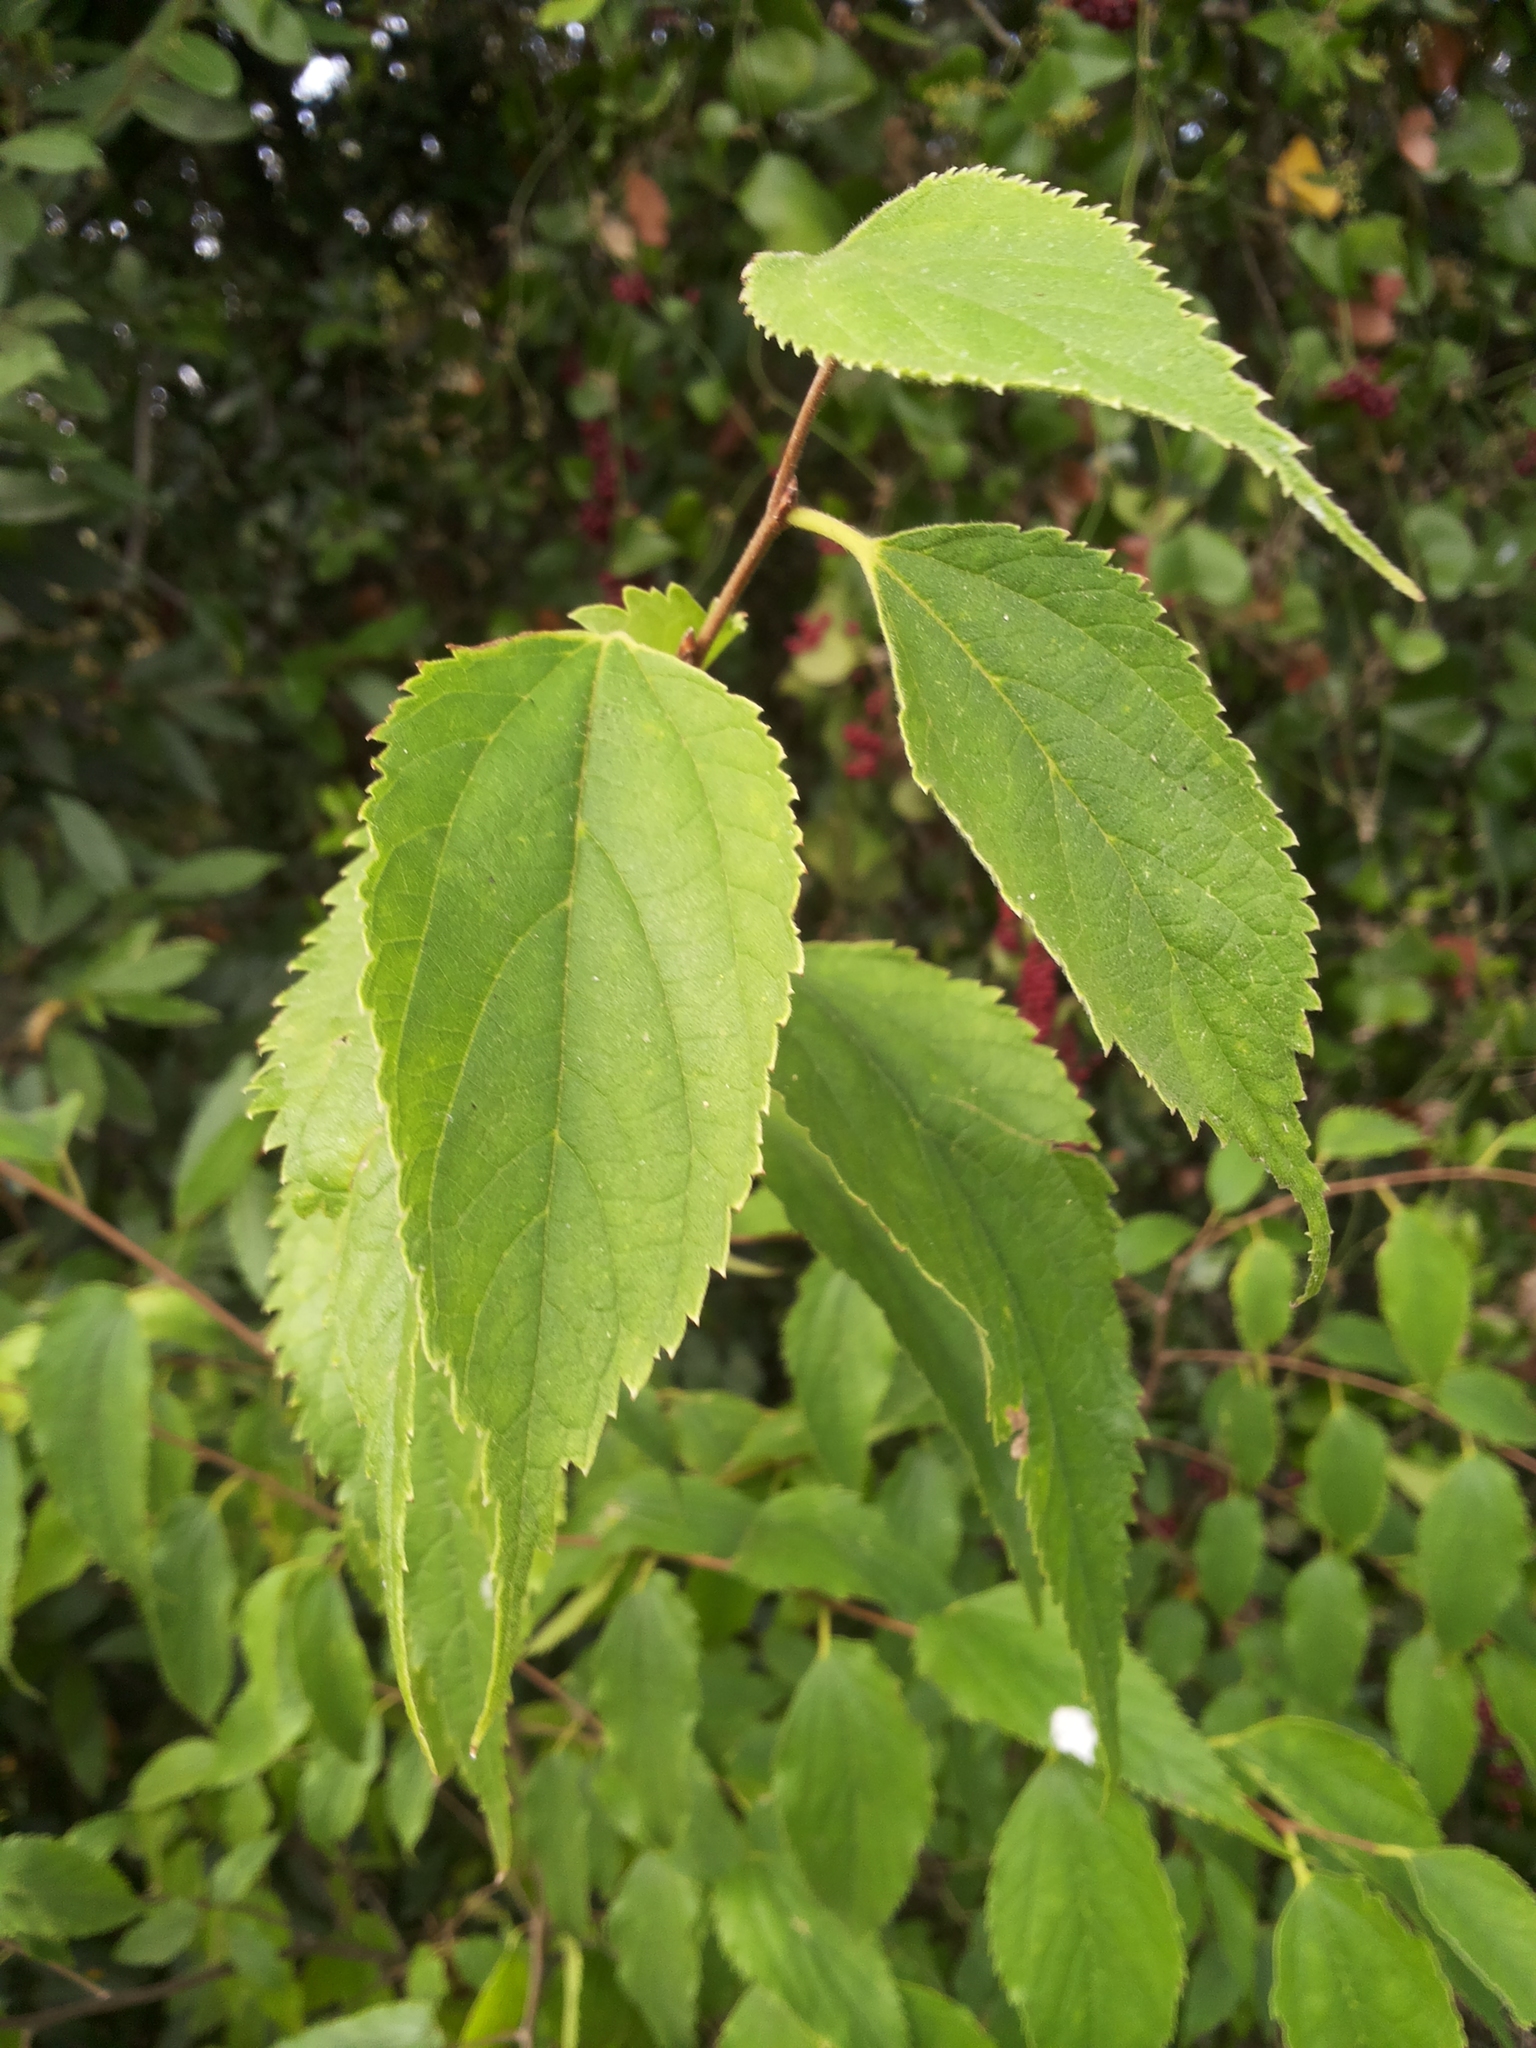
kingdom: Plantae
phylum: Tracheophyta
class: Magnoliopsida
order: Rosales
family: Cannabaceae
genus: Celtis
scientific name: Celtis australis
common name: European hackberry
